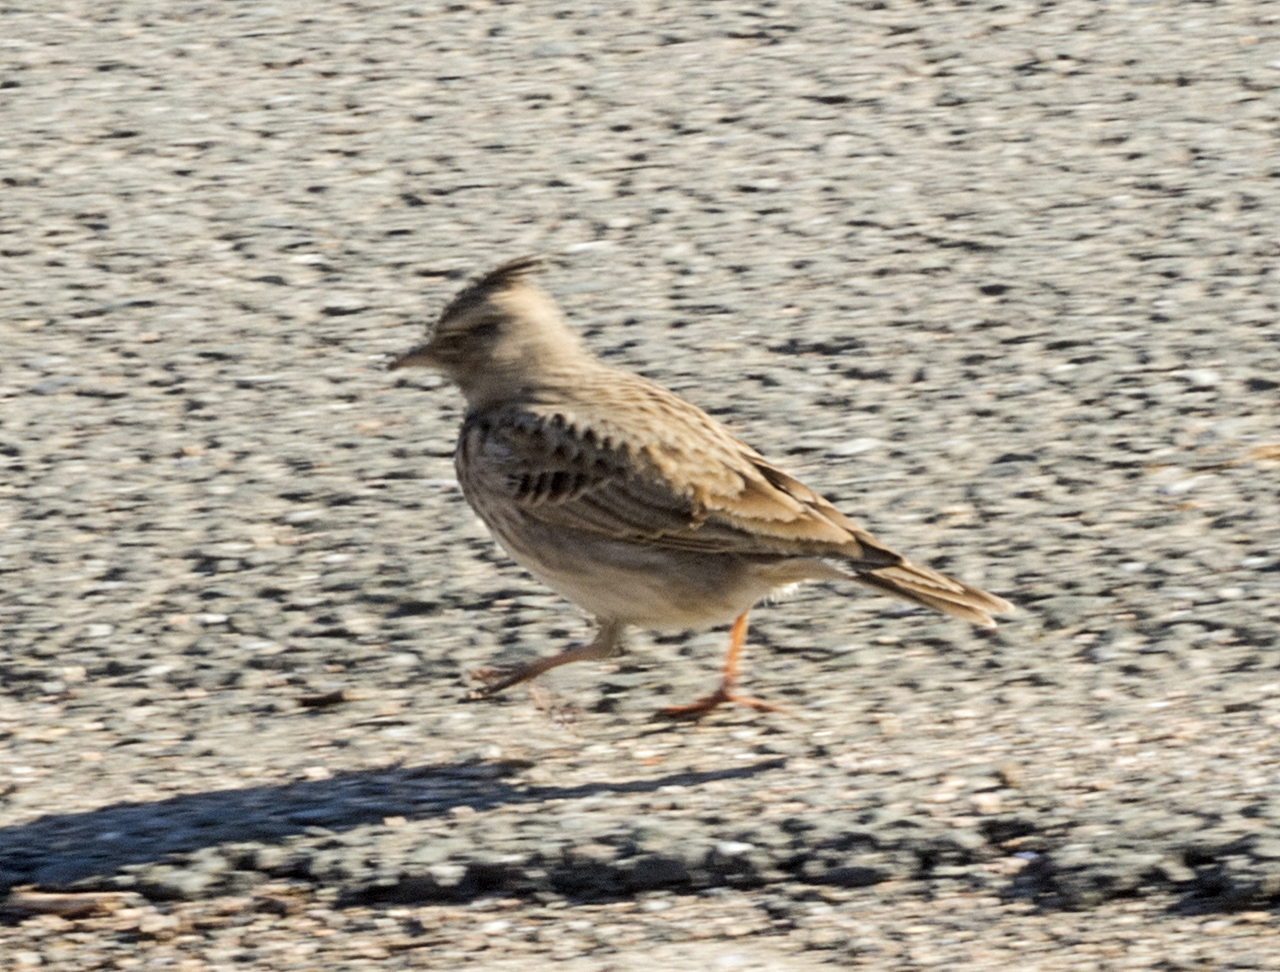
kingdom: Animalia
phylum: Chordata
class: Aves
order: Passeriformes
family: Alaudidae
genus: Galerida
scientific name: Galerida cristata
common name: Crested lark
